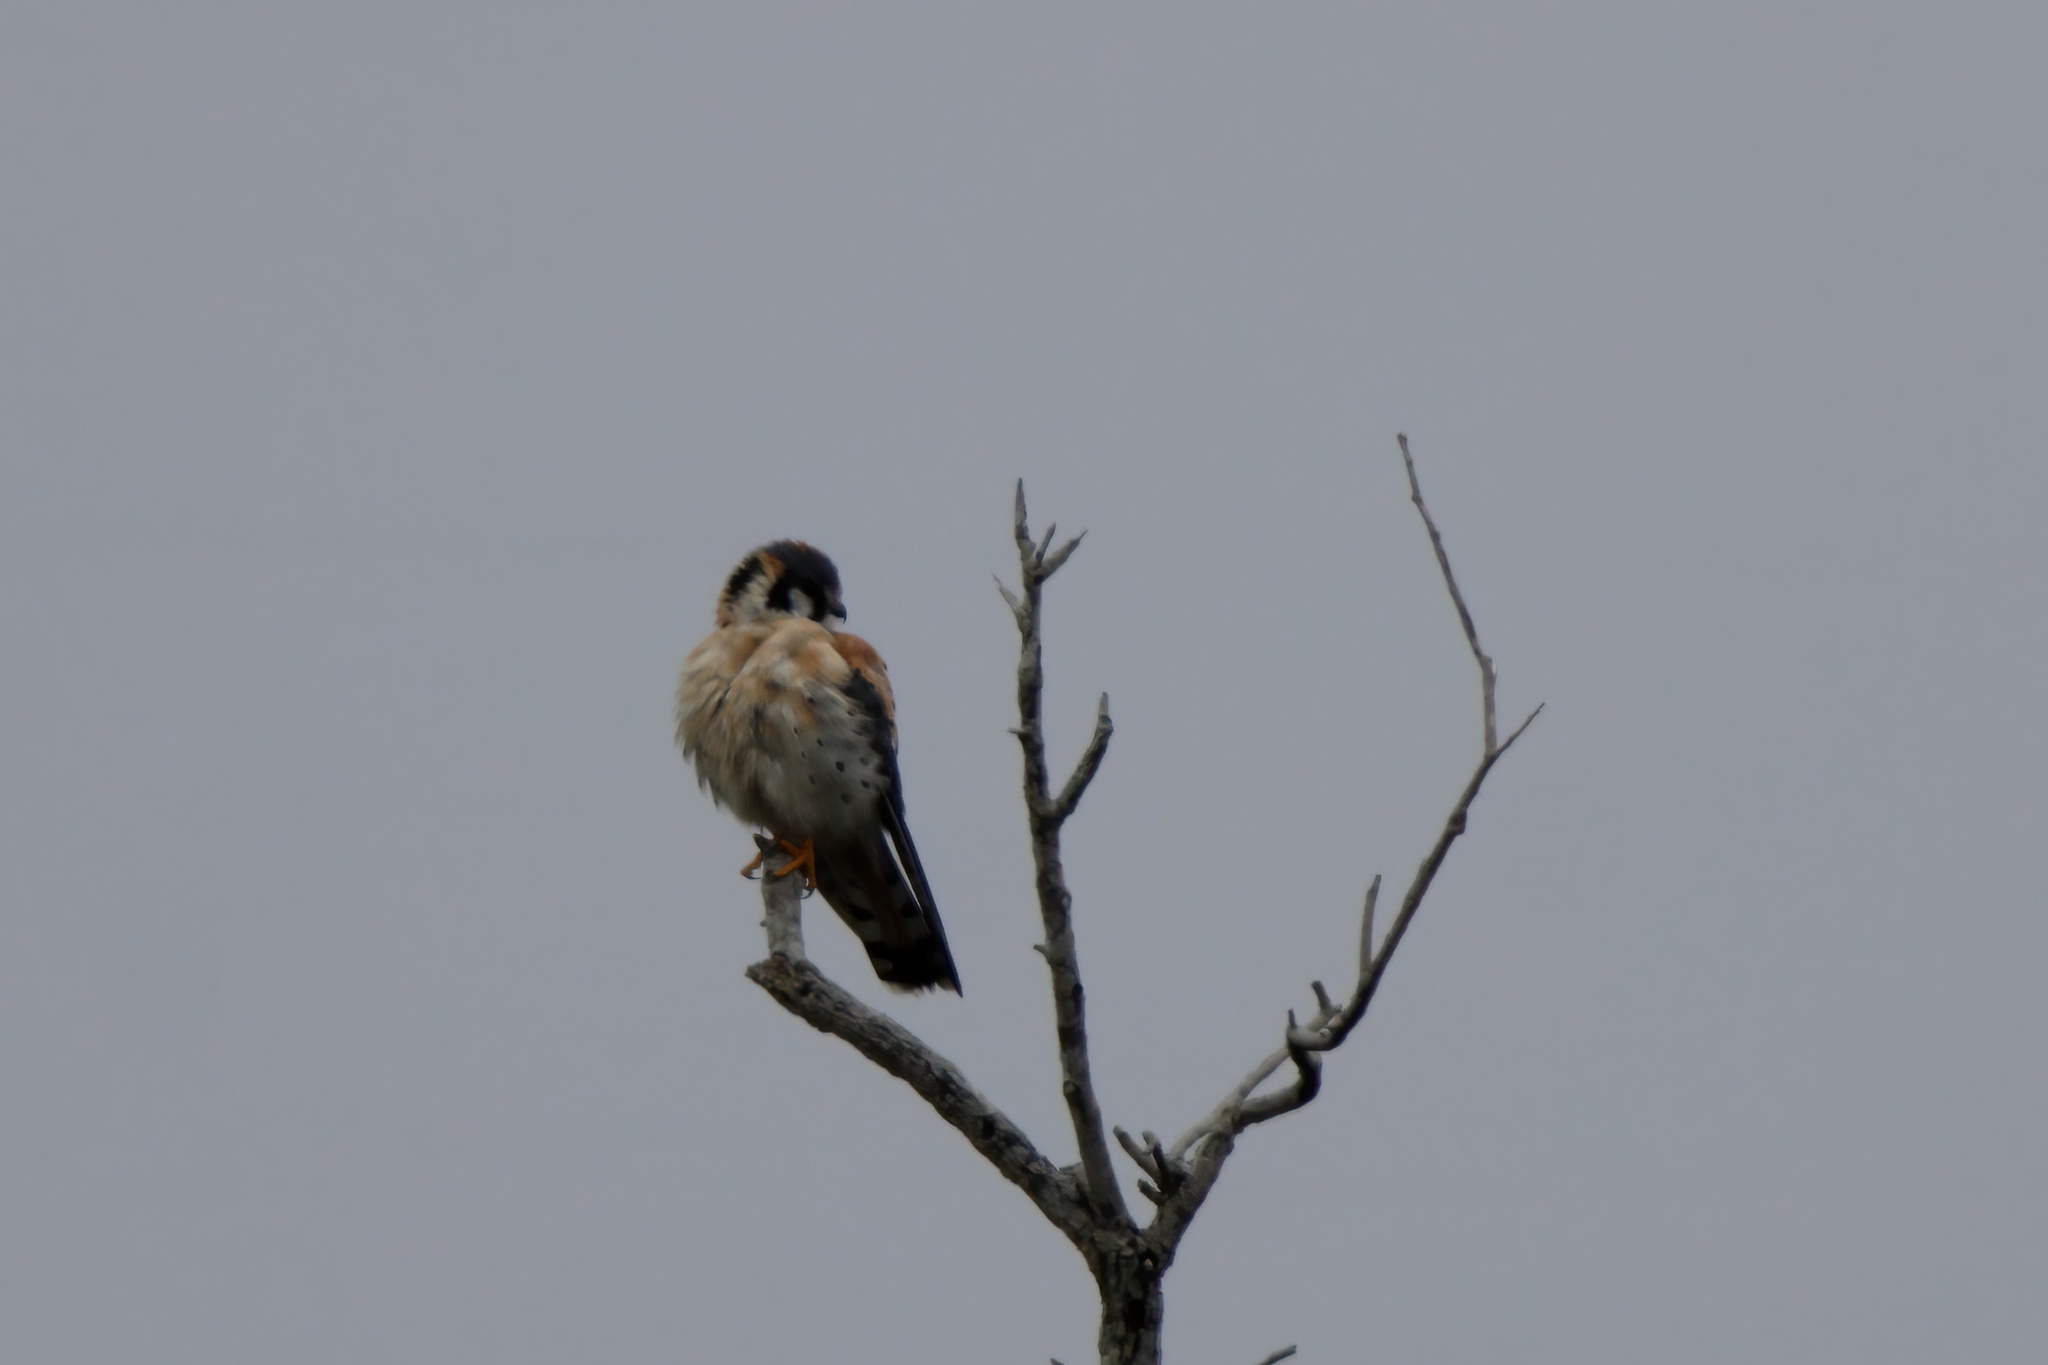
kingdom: Animalia
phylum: Chordata
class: Aves
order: Falconiformes
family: Falconidae
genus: Falco
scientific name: Falco sparverius
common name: American kestrel
